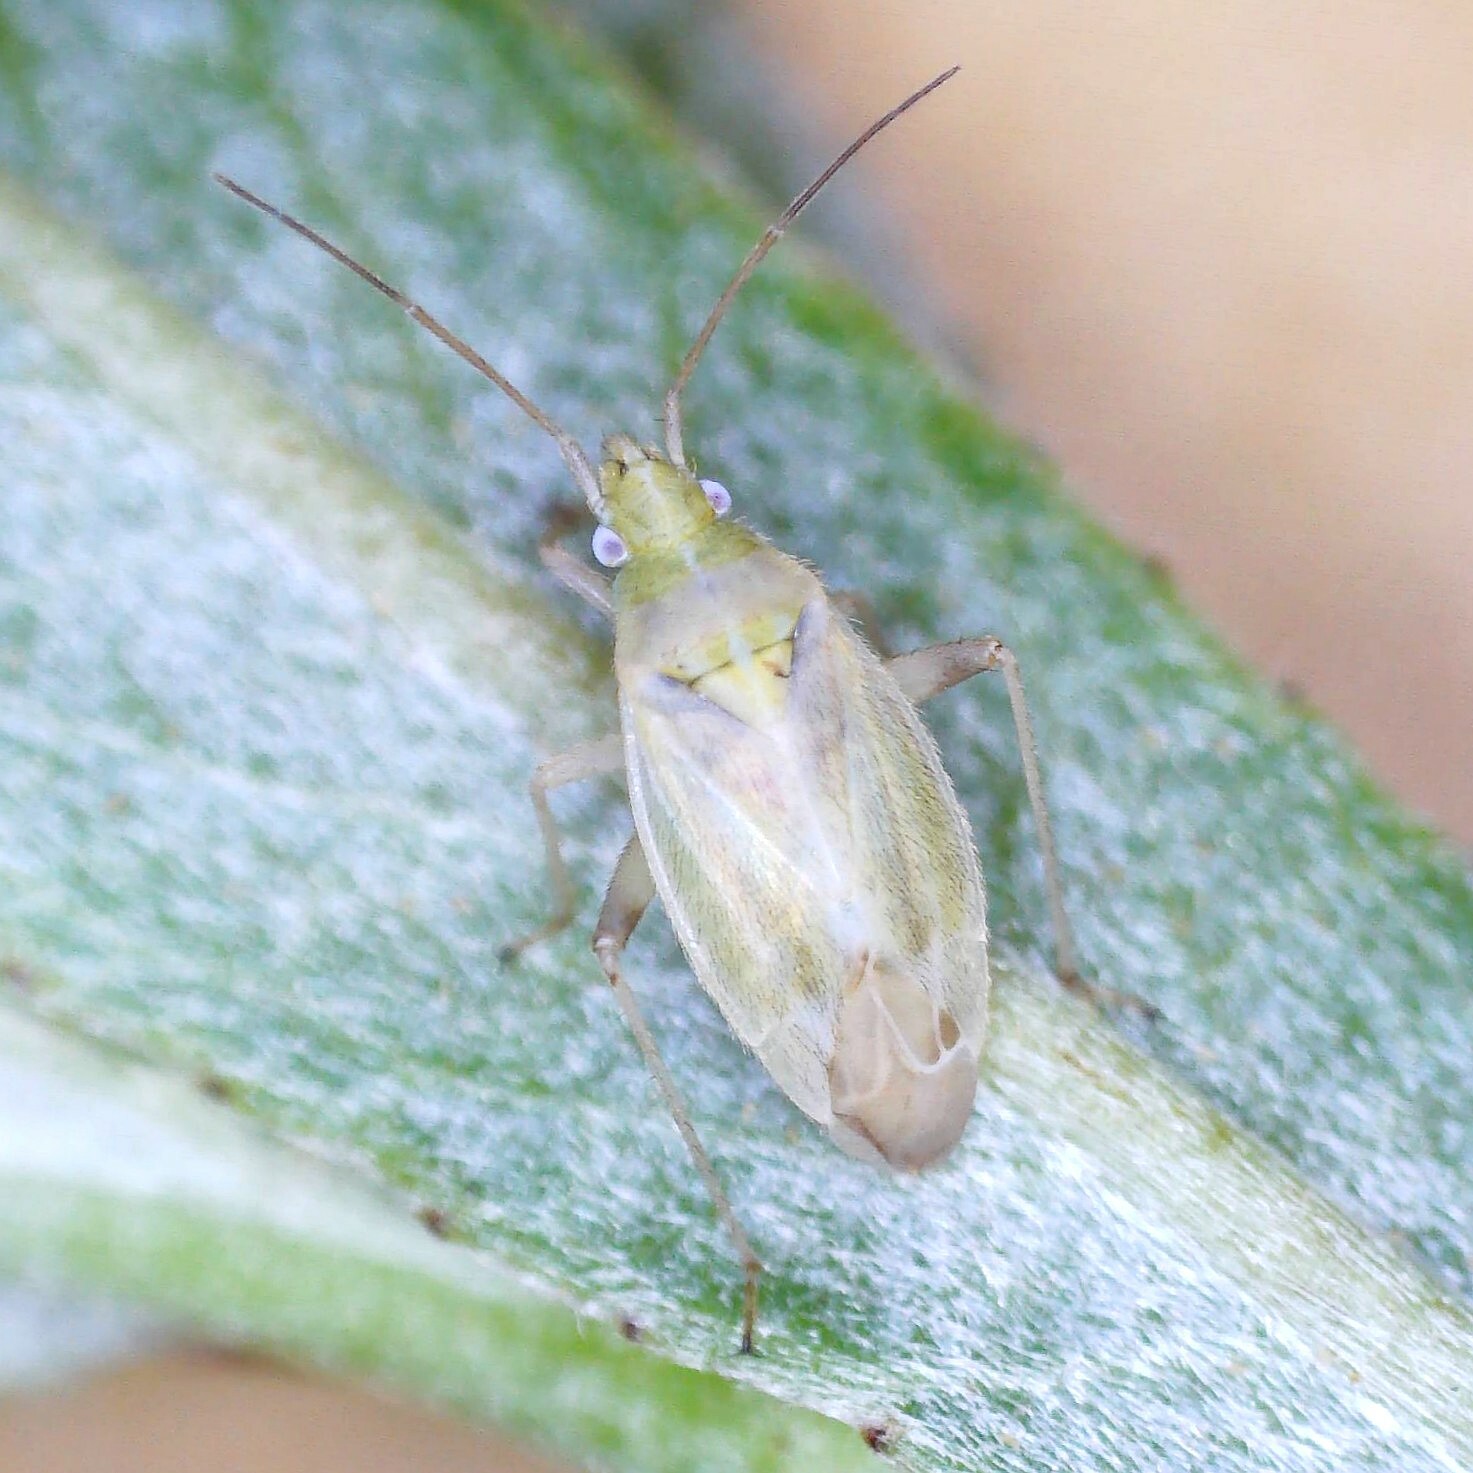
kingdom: Animalia
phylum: Arthropoda
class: Insecta
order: Hemiptera
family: Miridae
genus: Amblytylus
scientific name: Amblytylus nasutus
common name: Plant bug
